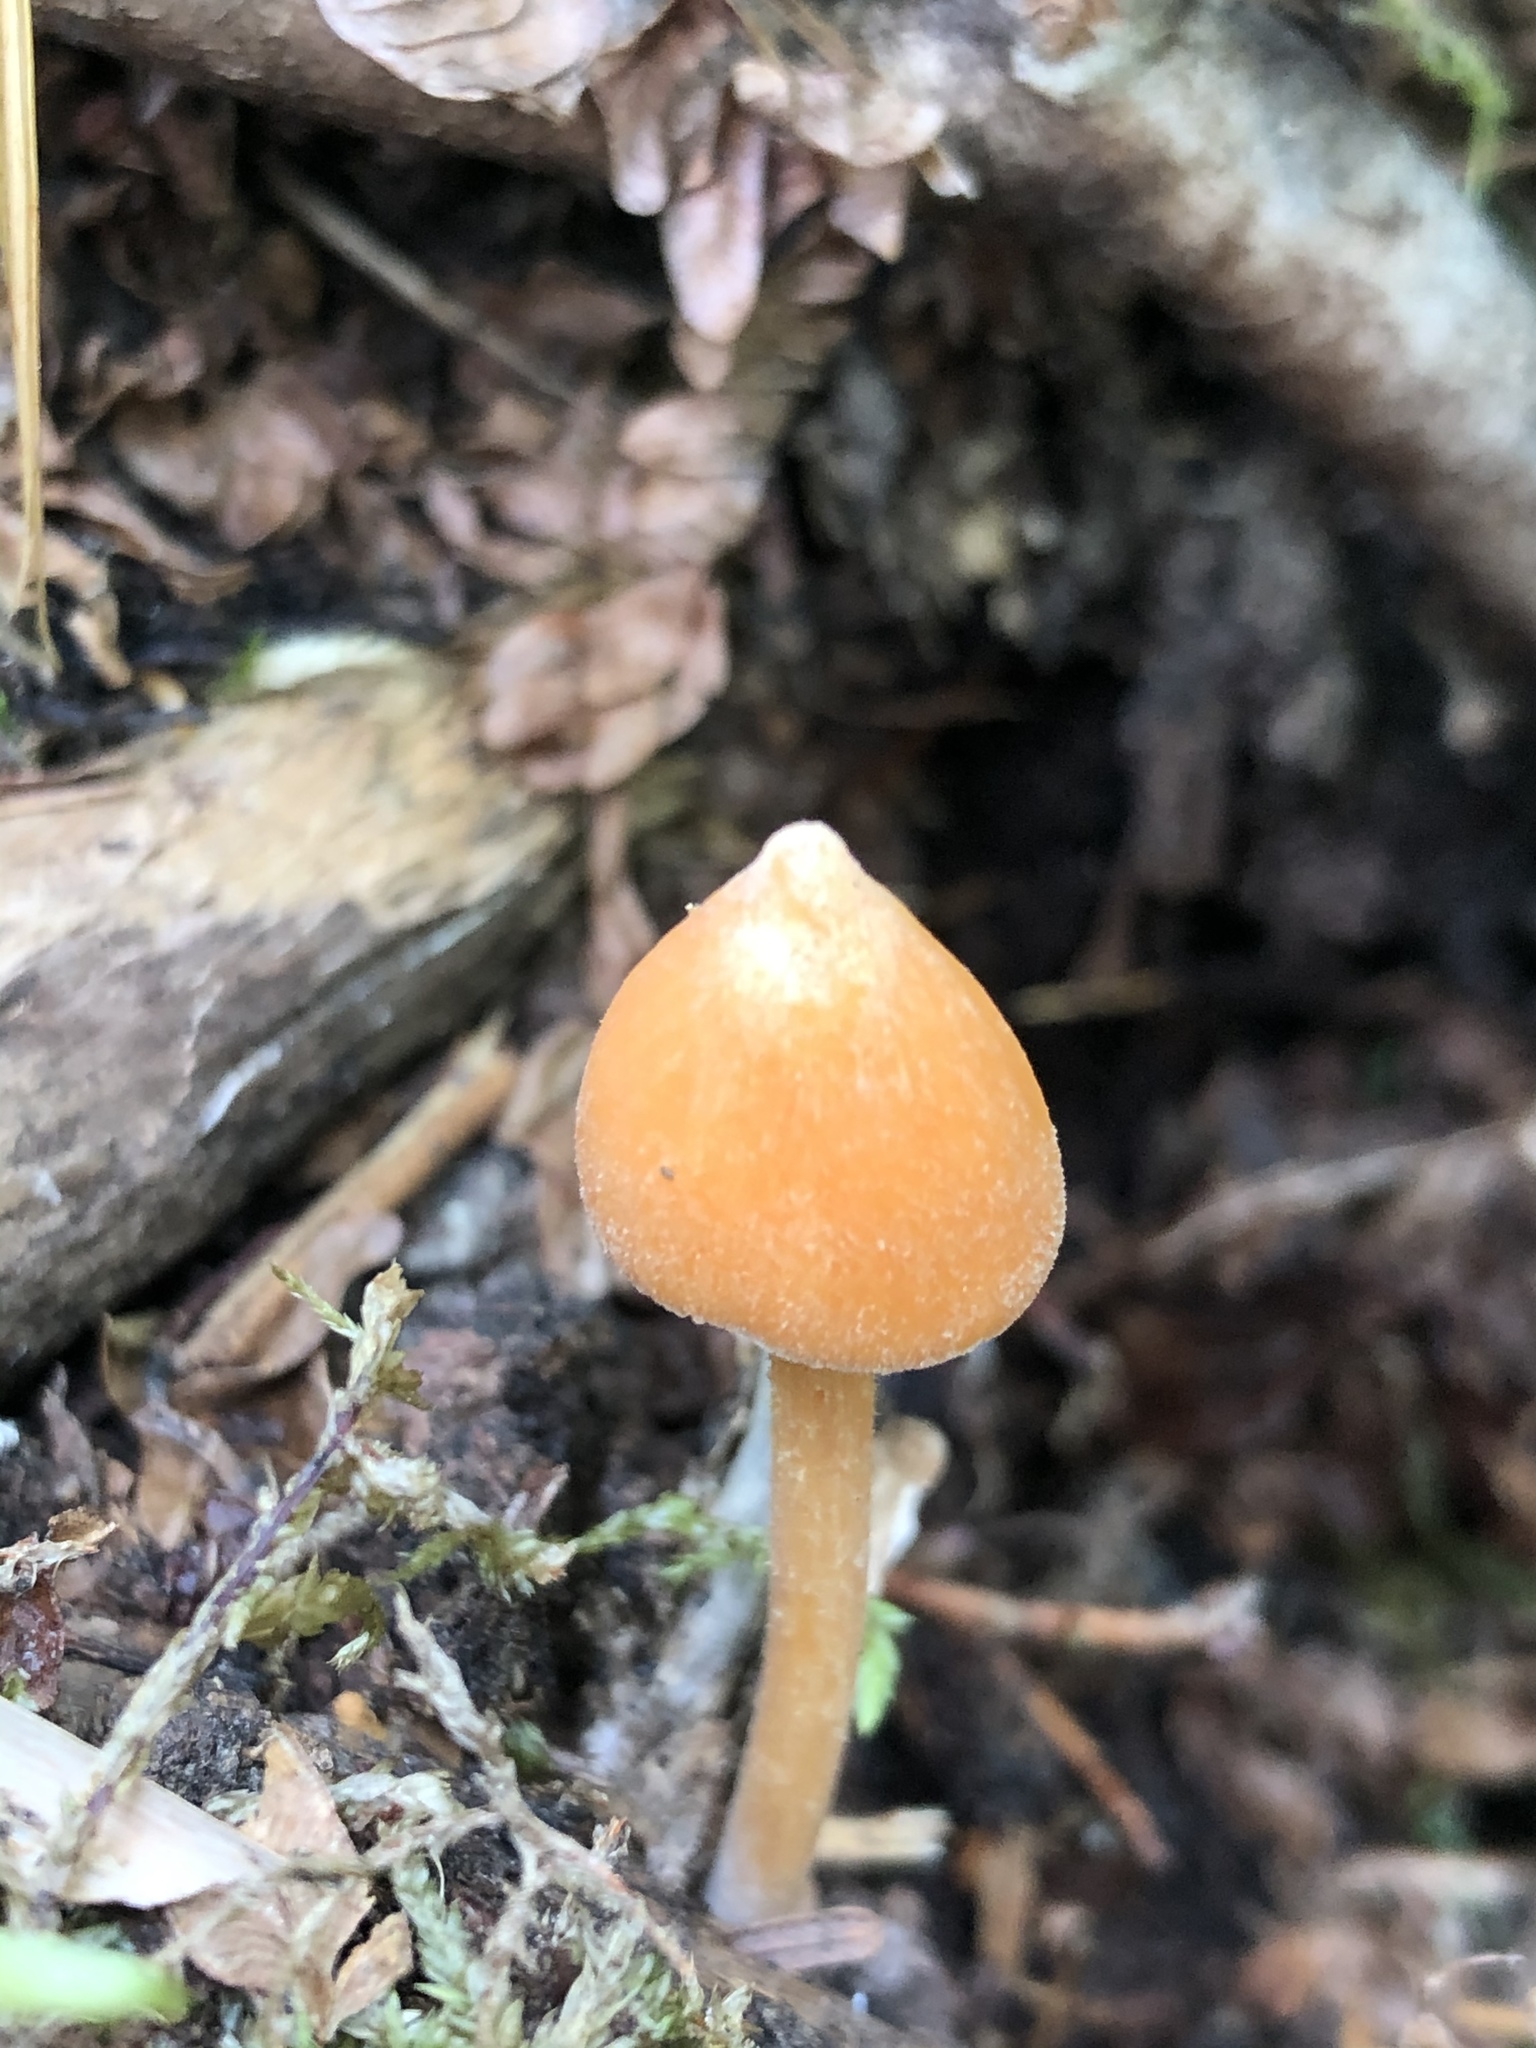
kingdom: Fungi
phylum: Basidiomycota
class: Agaricomycetes
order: Agaricales
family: Entolomataceae
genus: Entoloma
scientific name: Entoloma quadratum
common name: Salmon pinkgill
